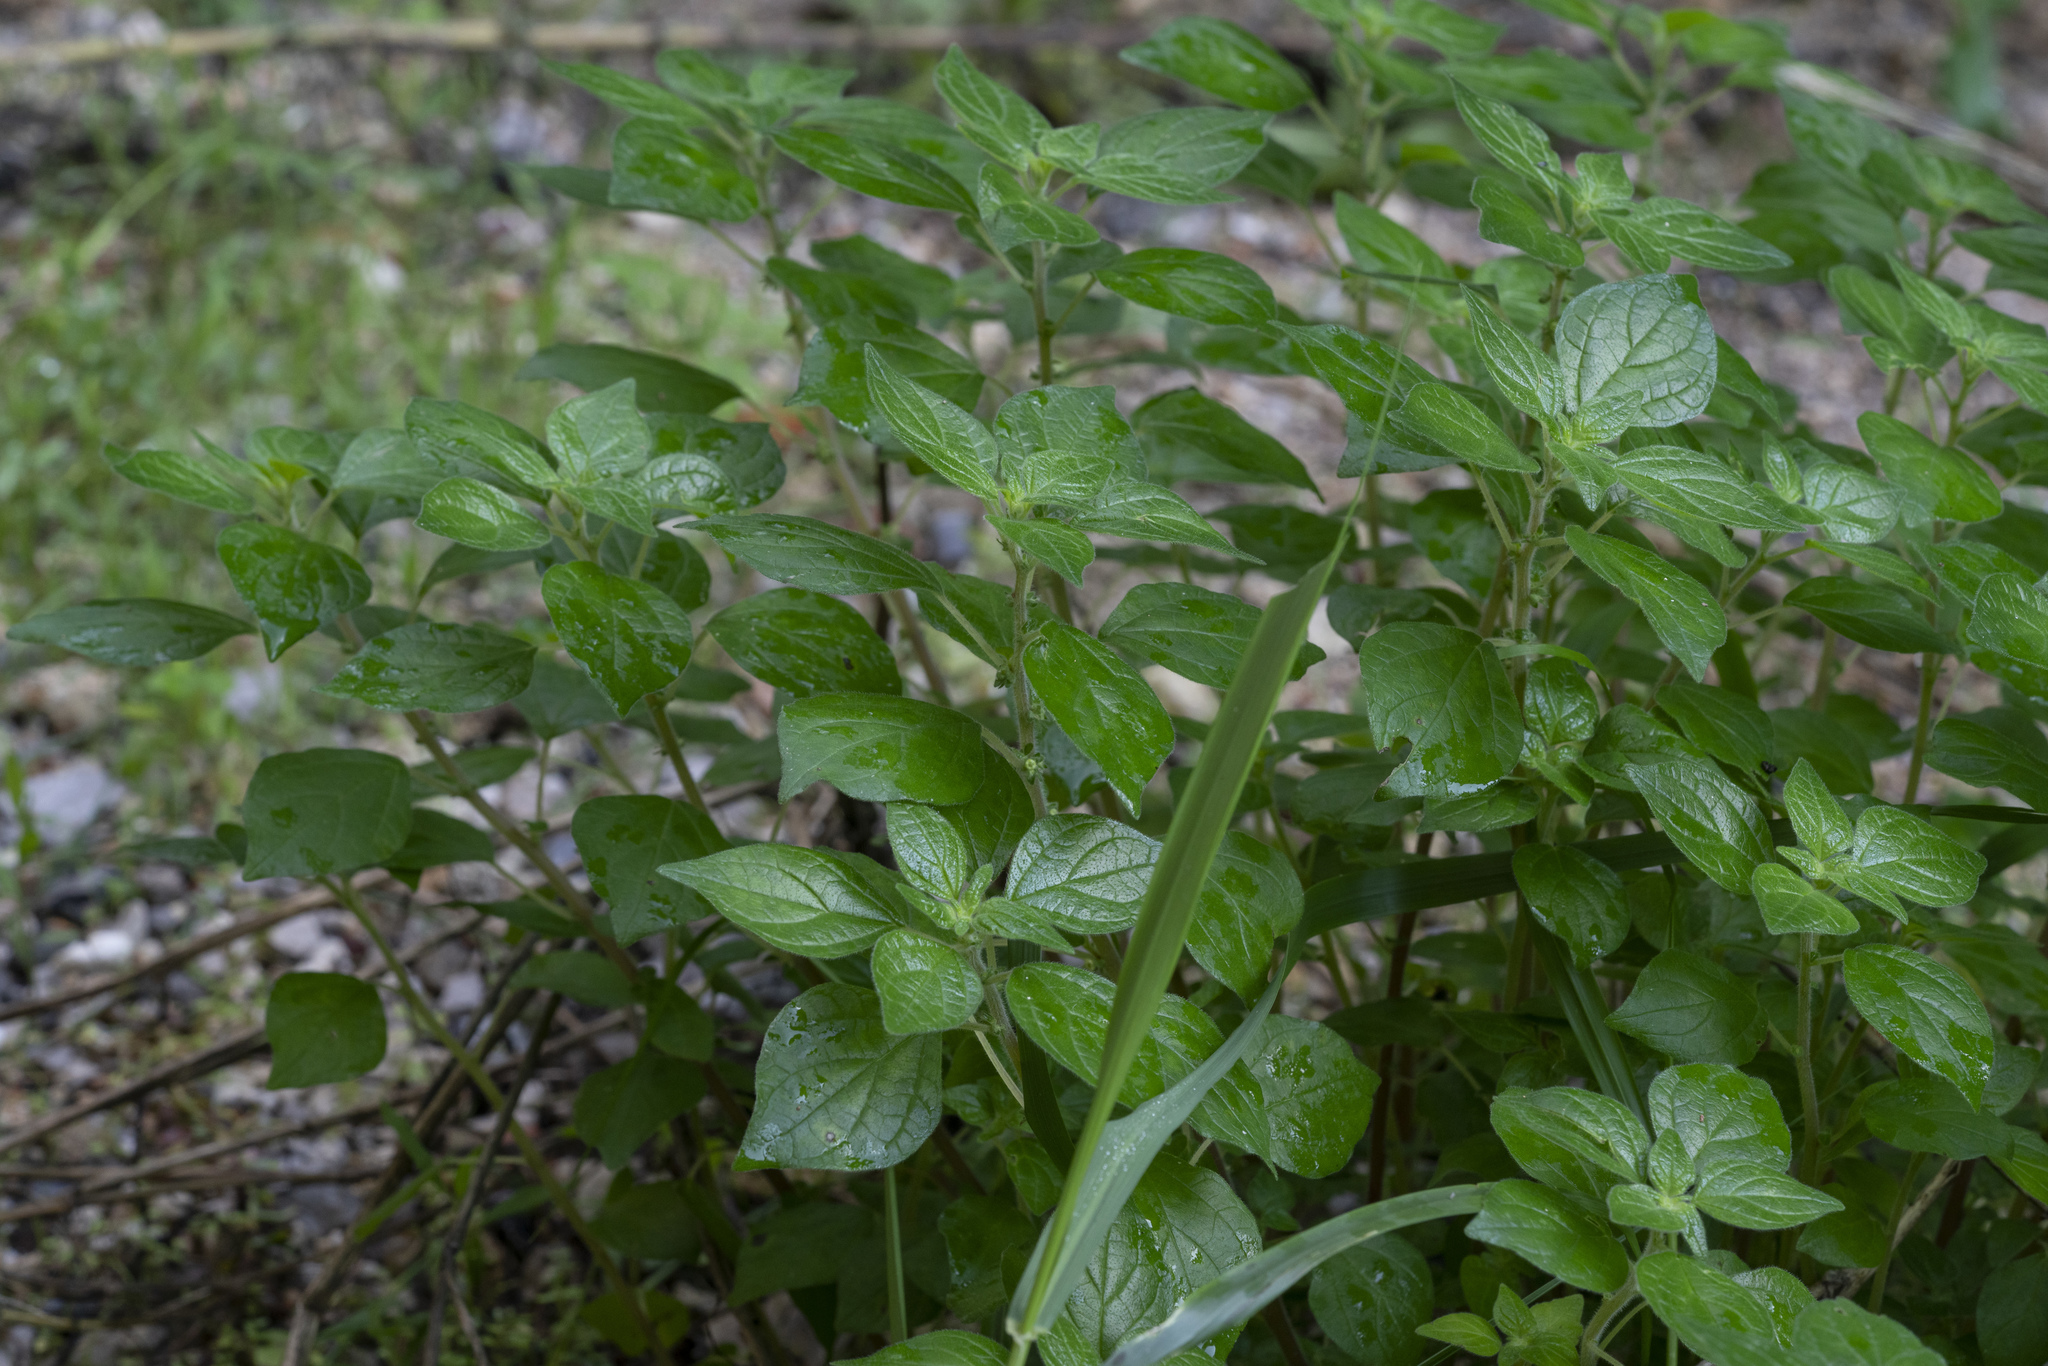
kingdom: Plantae
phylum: Tracheophyta
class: Magnoliopsida
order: Rosales
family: Urticaceae
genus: Parietaria
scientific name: Parietaria judaica
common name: Pellitory-of-the-wall
